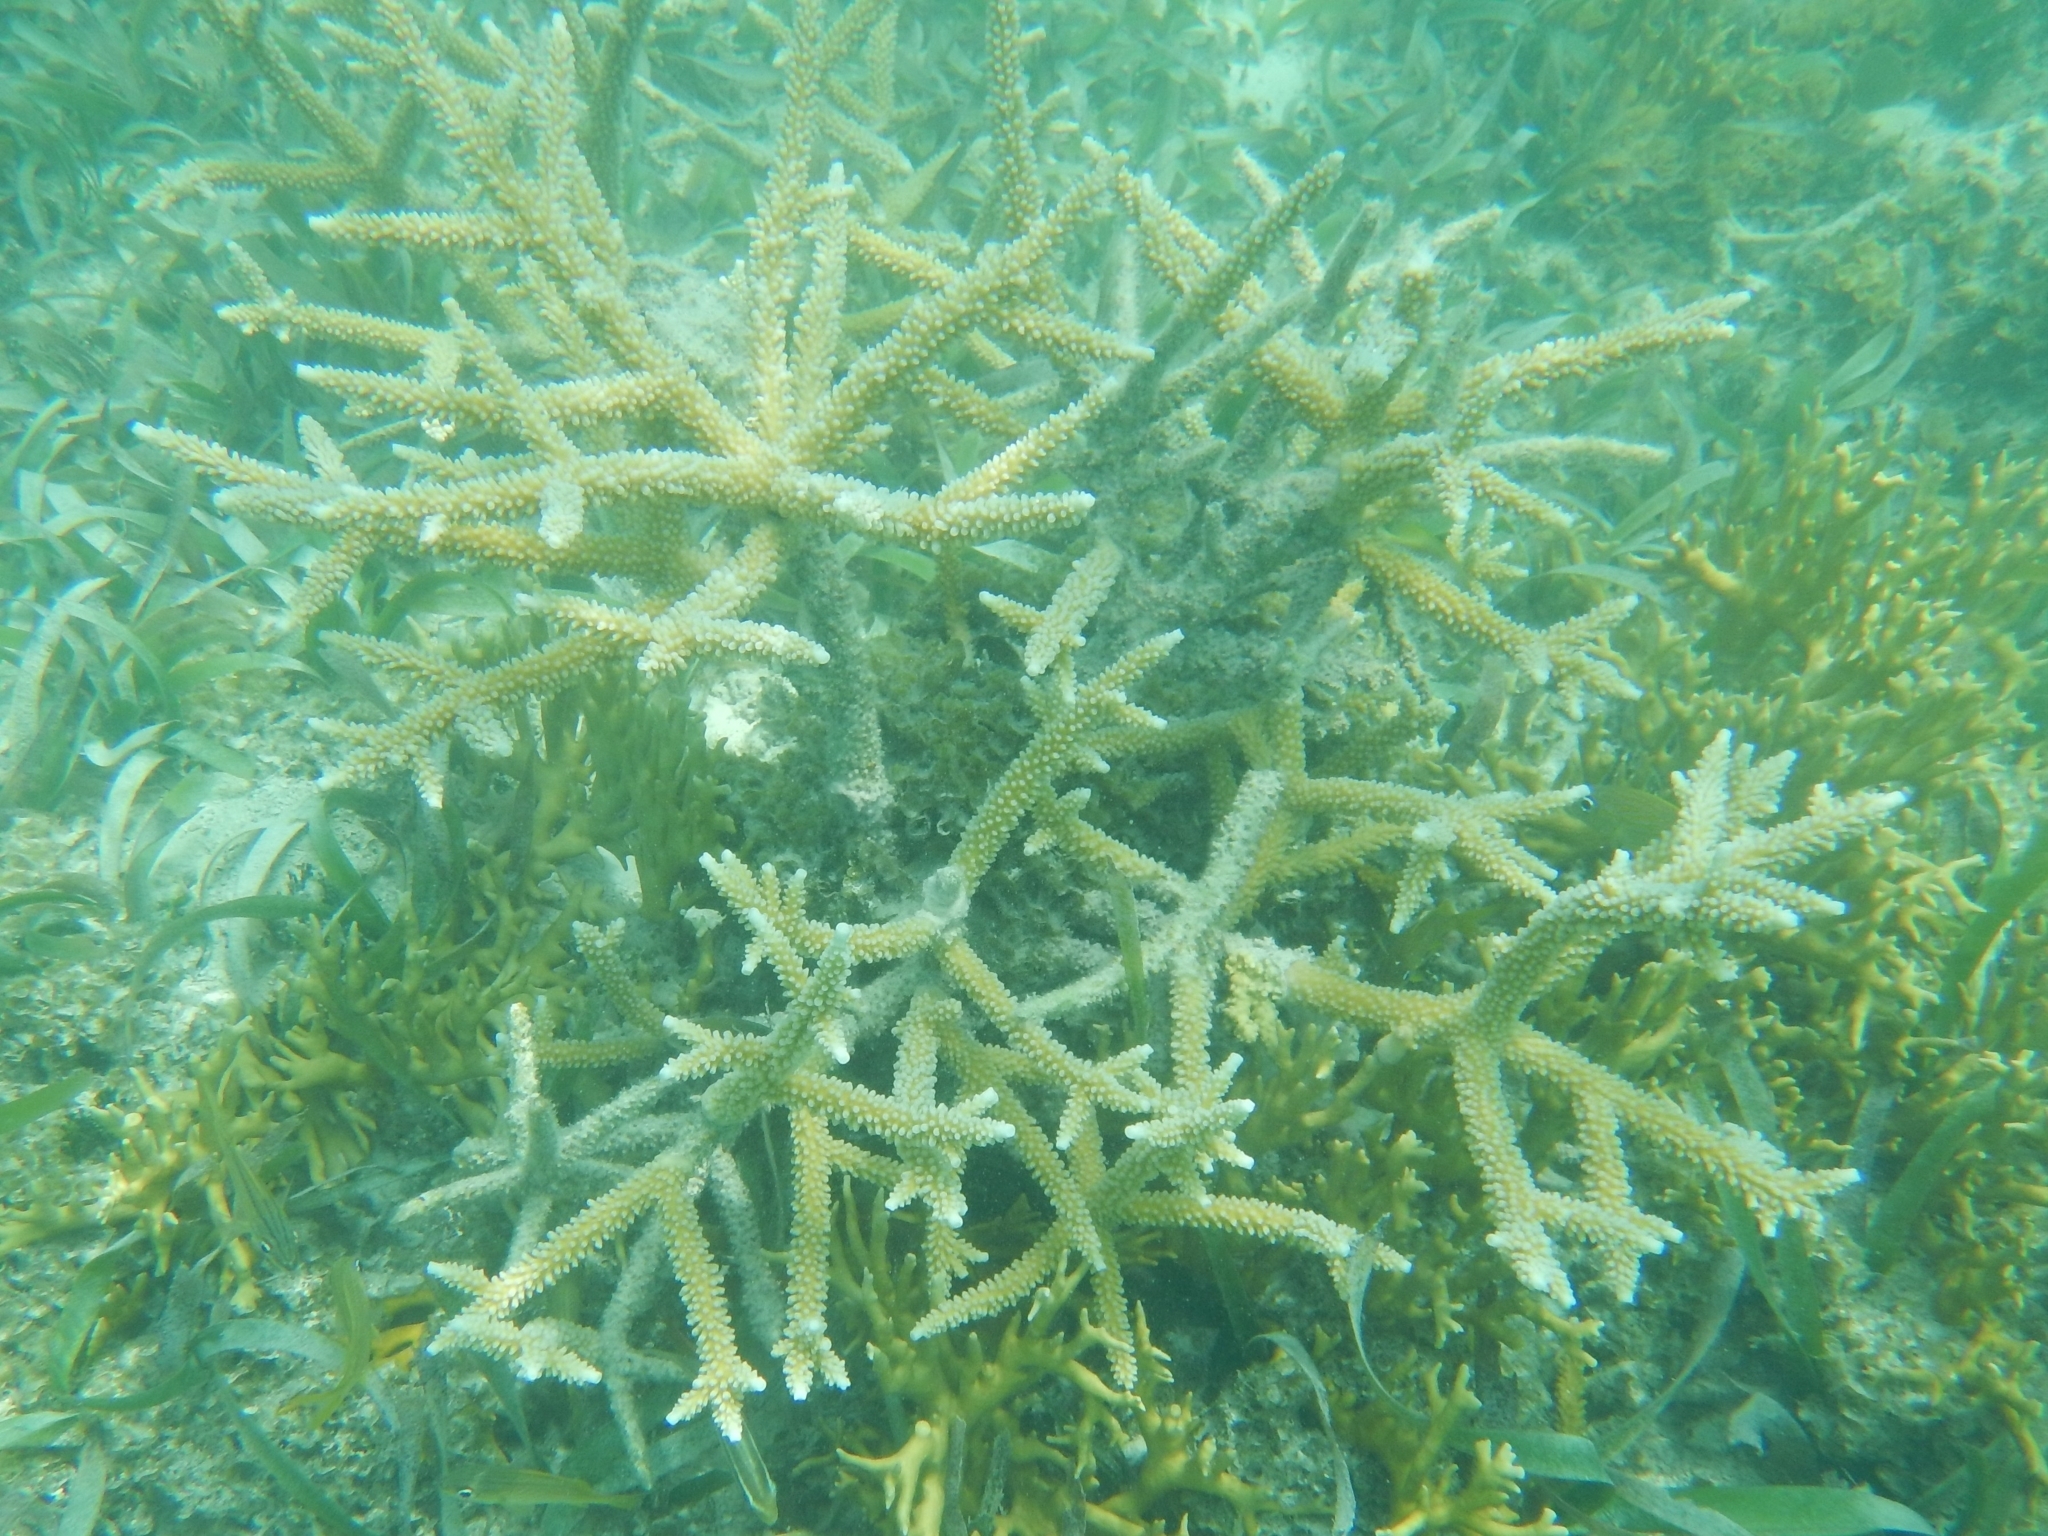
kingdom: Animalia
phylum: Cnidaria
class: Anthozoa
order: Scleractinia
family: Acroporidae
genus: Acropora
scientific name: Acropora cervicornis
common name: Staghorn coral
